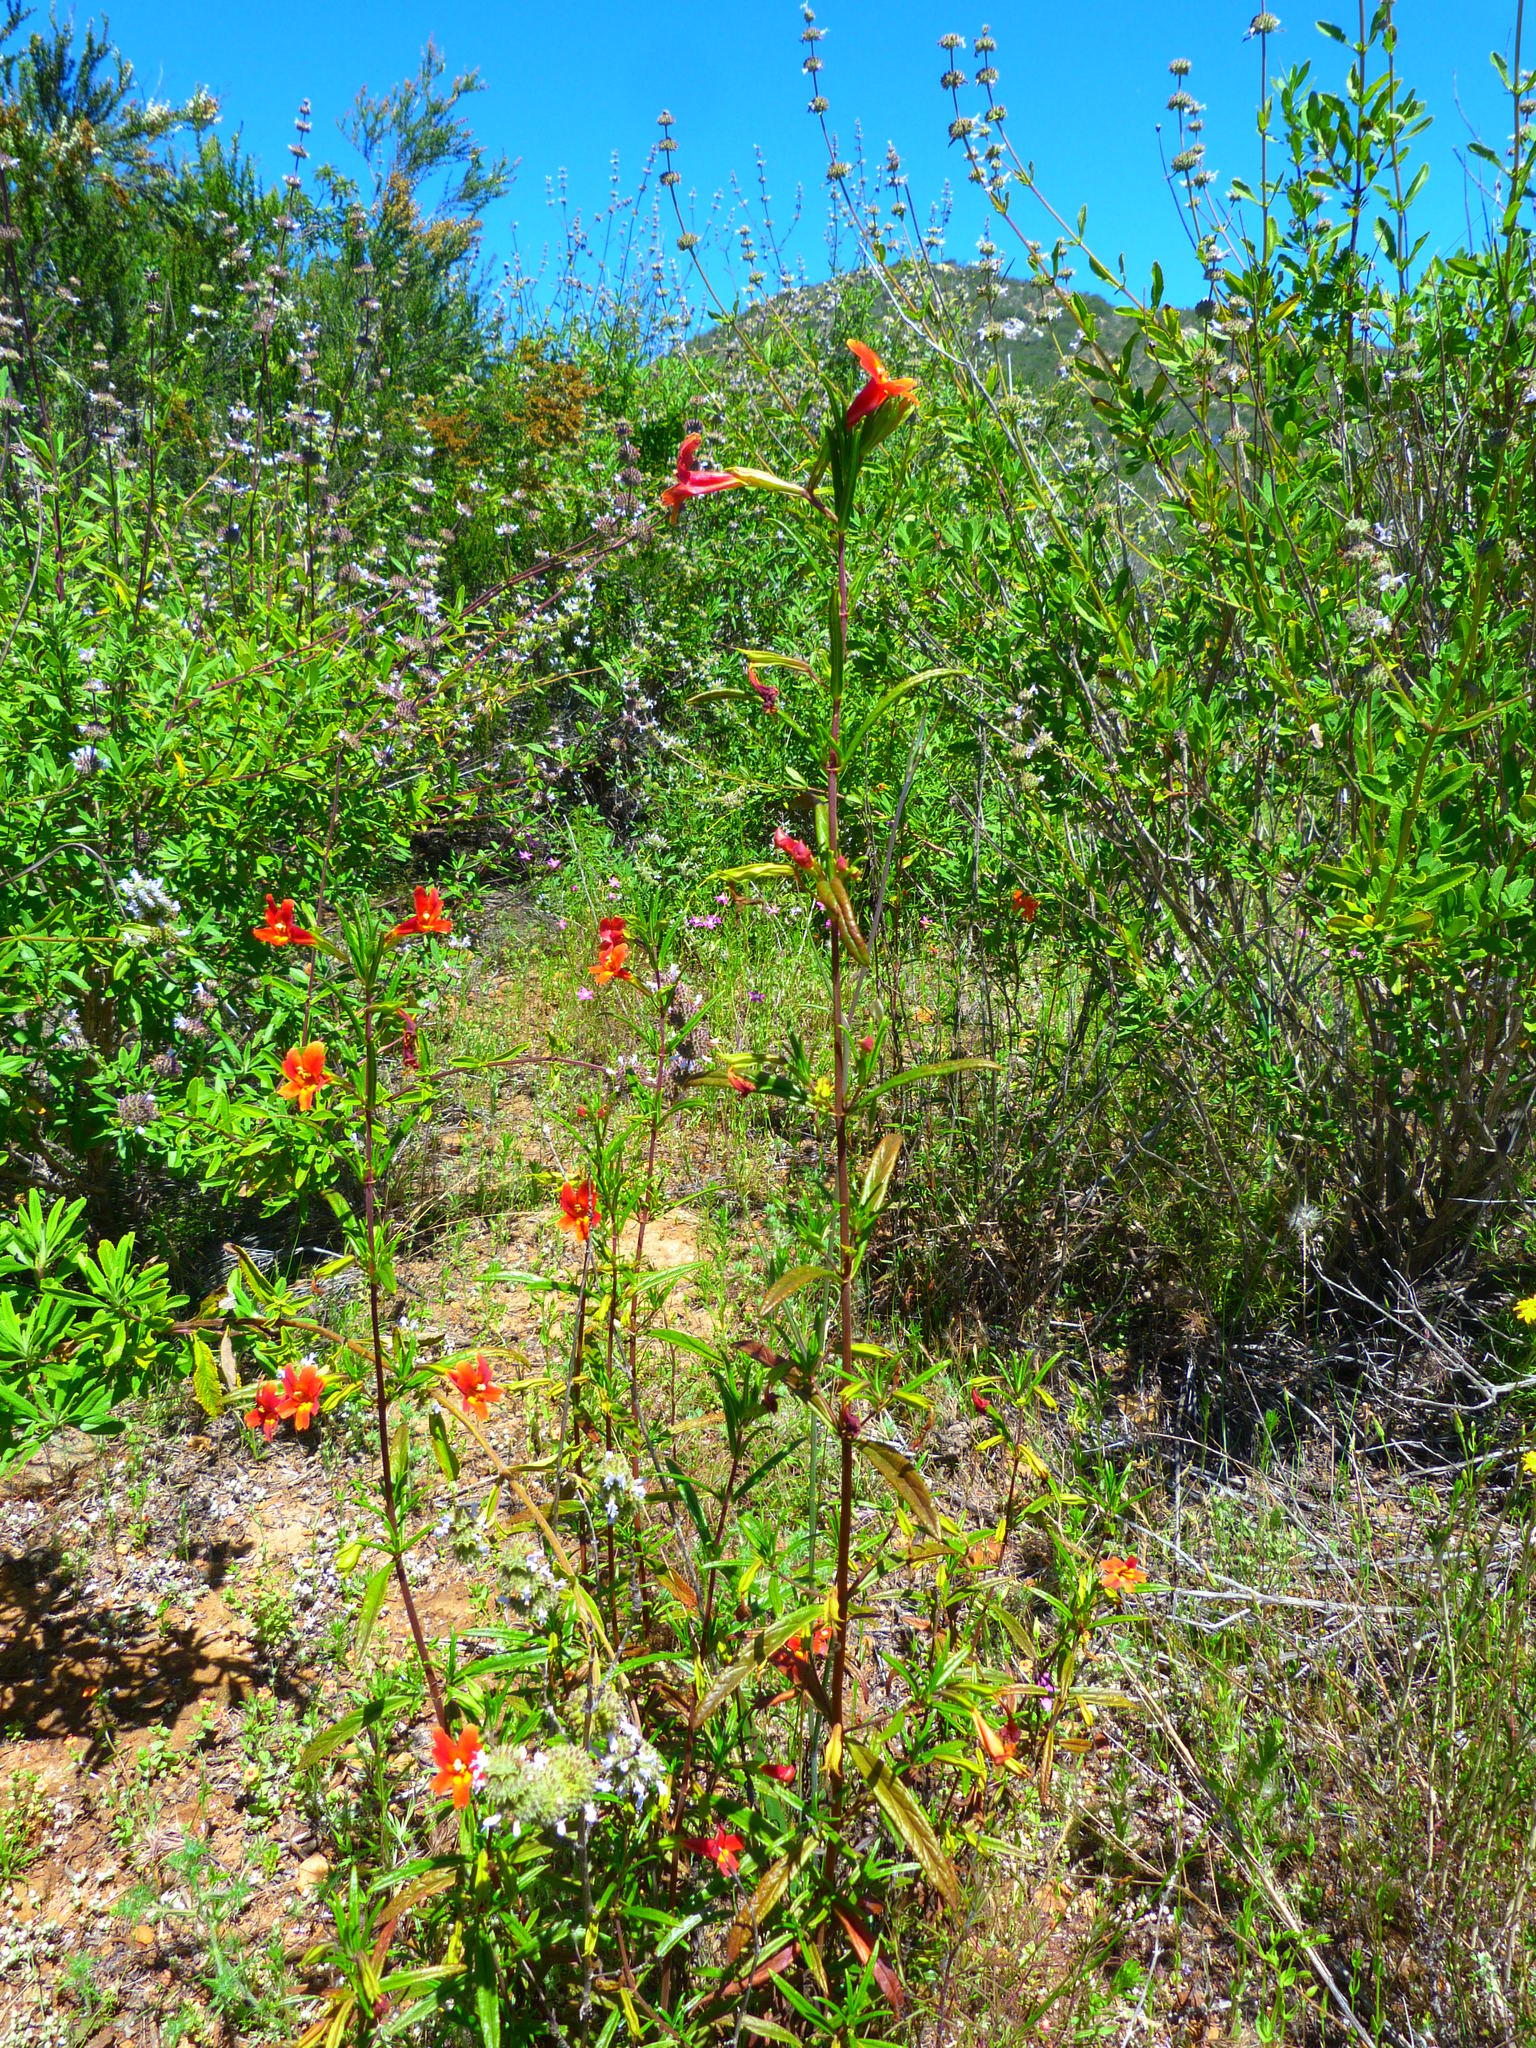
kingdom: Plantae
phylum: Tracheophyta
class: Magnoliopsida
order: Lamiales
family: Phrymaceae
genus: Diplacus
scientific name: Diplacus puniceus
